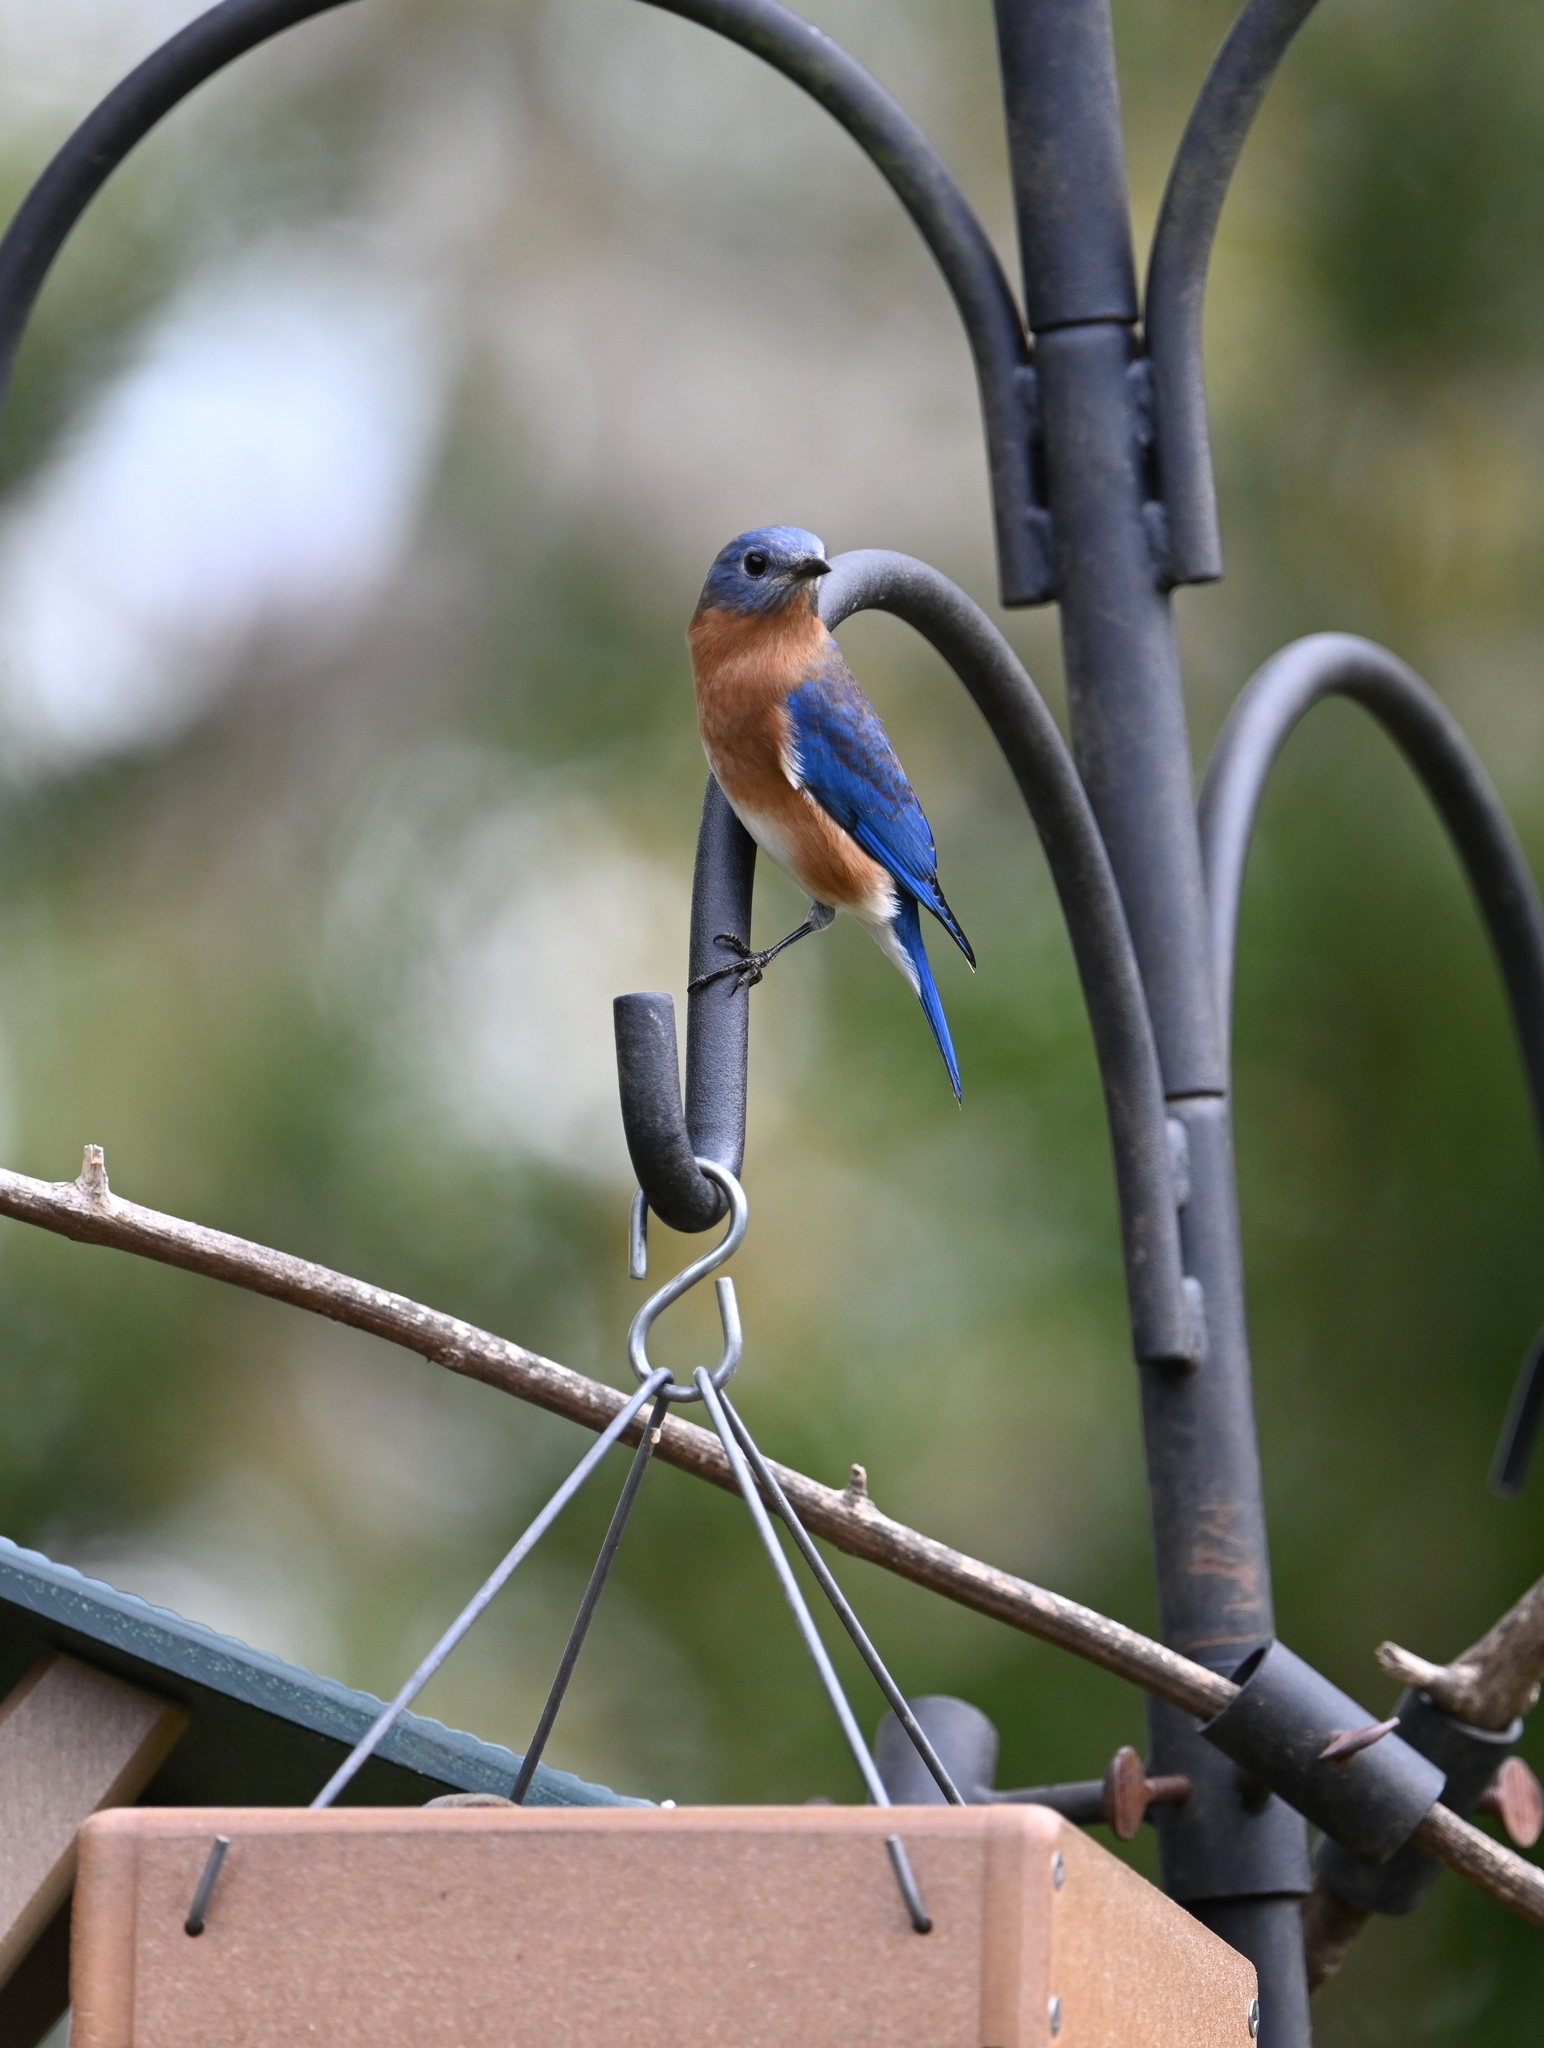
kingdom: Animalia
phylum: Chordata
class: Aves
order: Passeriformes
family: Turdidae
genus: Sialia
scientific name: Sialia sialis
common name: Eastern bluebird
